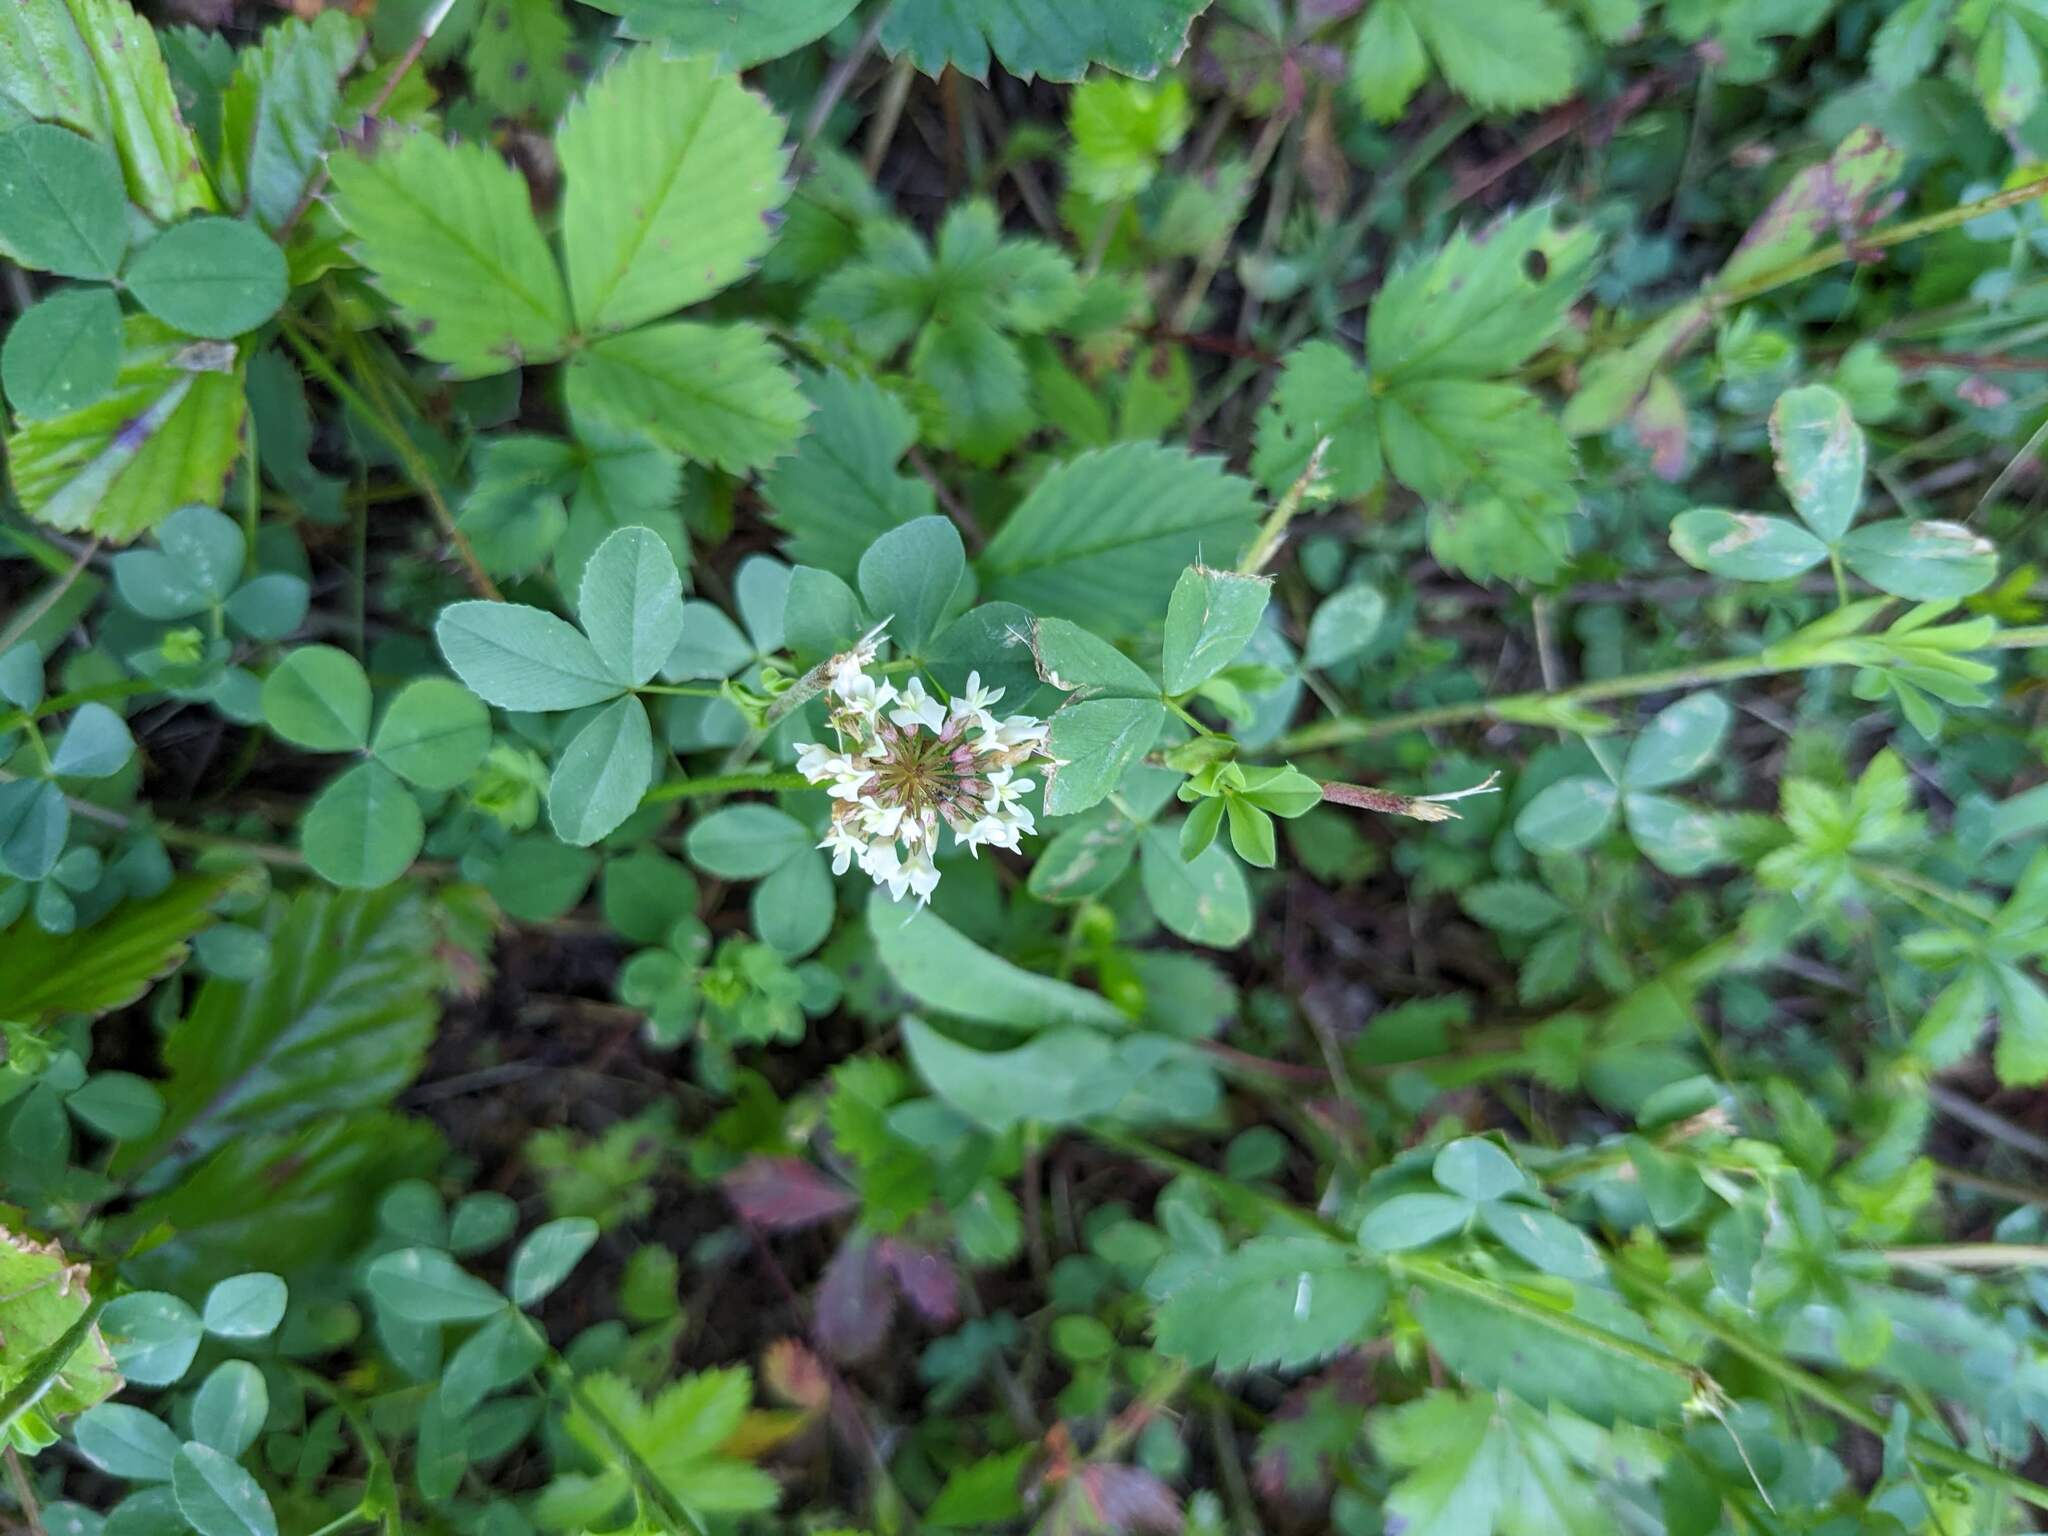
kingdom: Plantae
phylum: Tracheophyta
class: Magnoliopsida
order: Fabales
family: Fabaceae
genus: Trifolium
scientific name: Trifolium repens
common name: White clover
